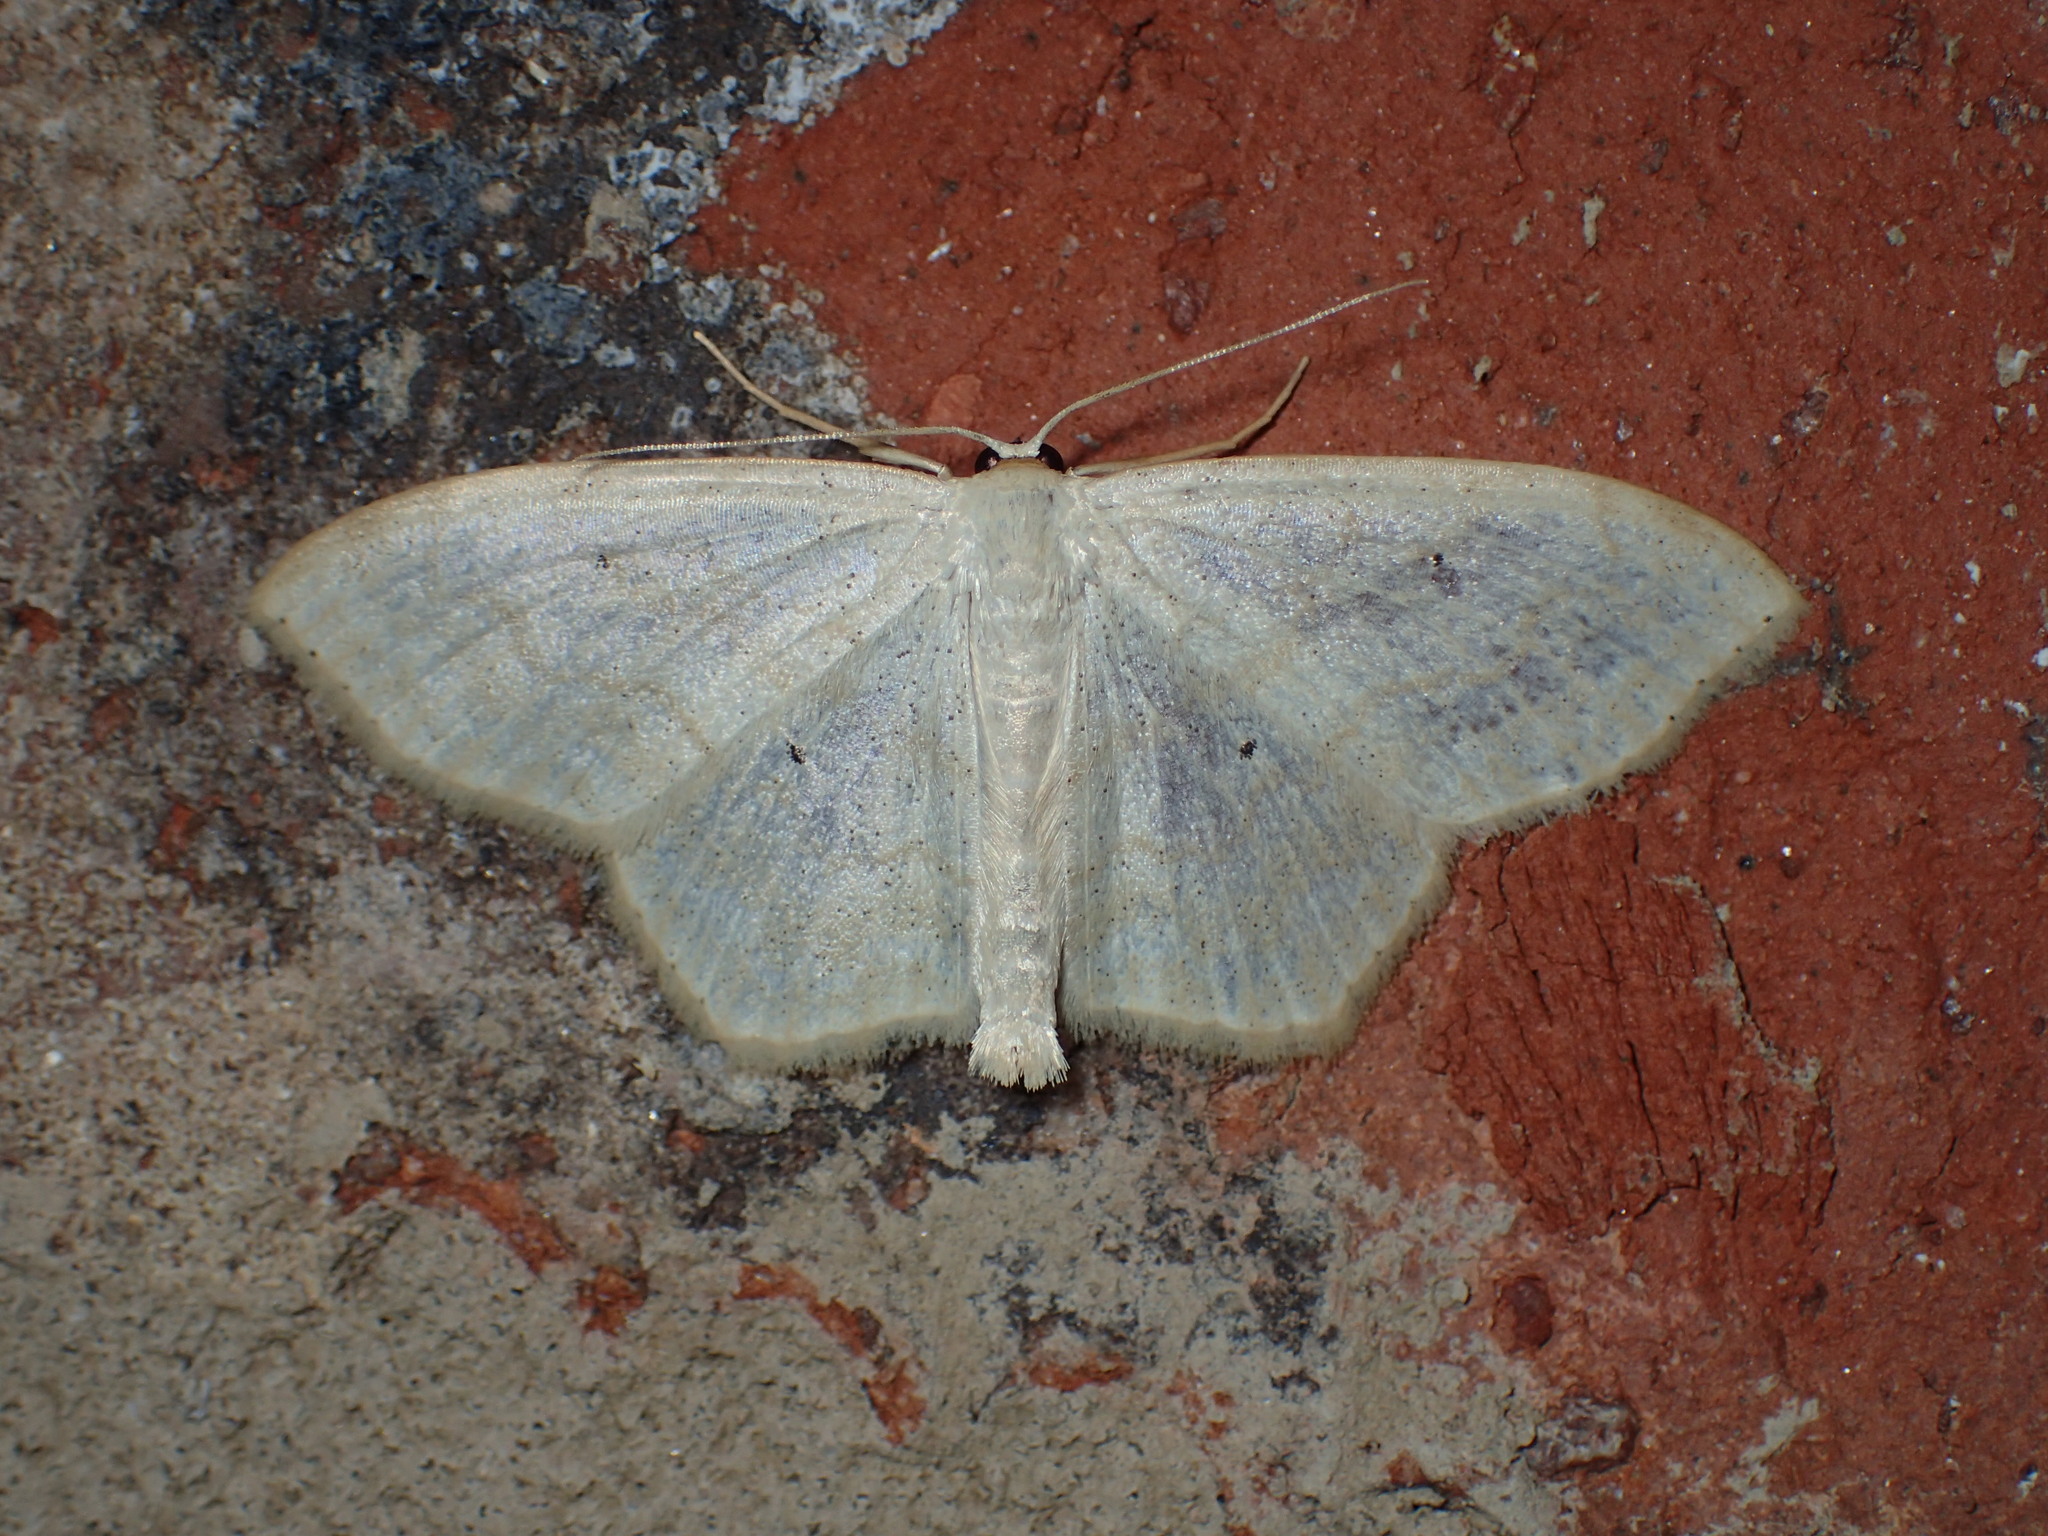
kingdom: Animalia
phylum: Arthropoda
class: Insecta
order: Lepidoptera
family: Geometridae
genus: Scopula
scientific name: Scopula limboundata
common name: Large lace border
